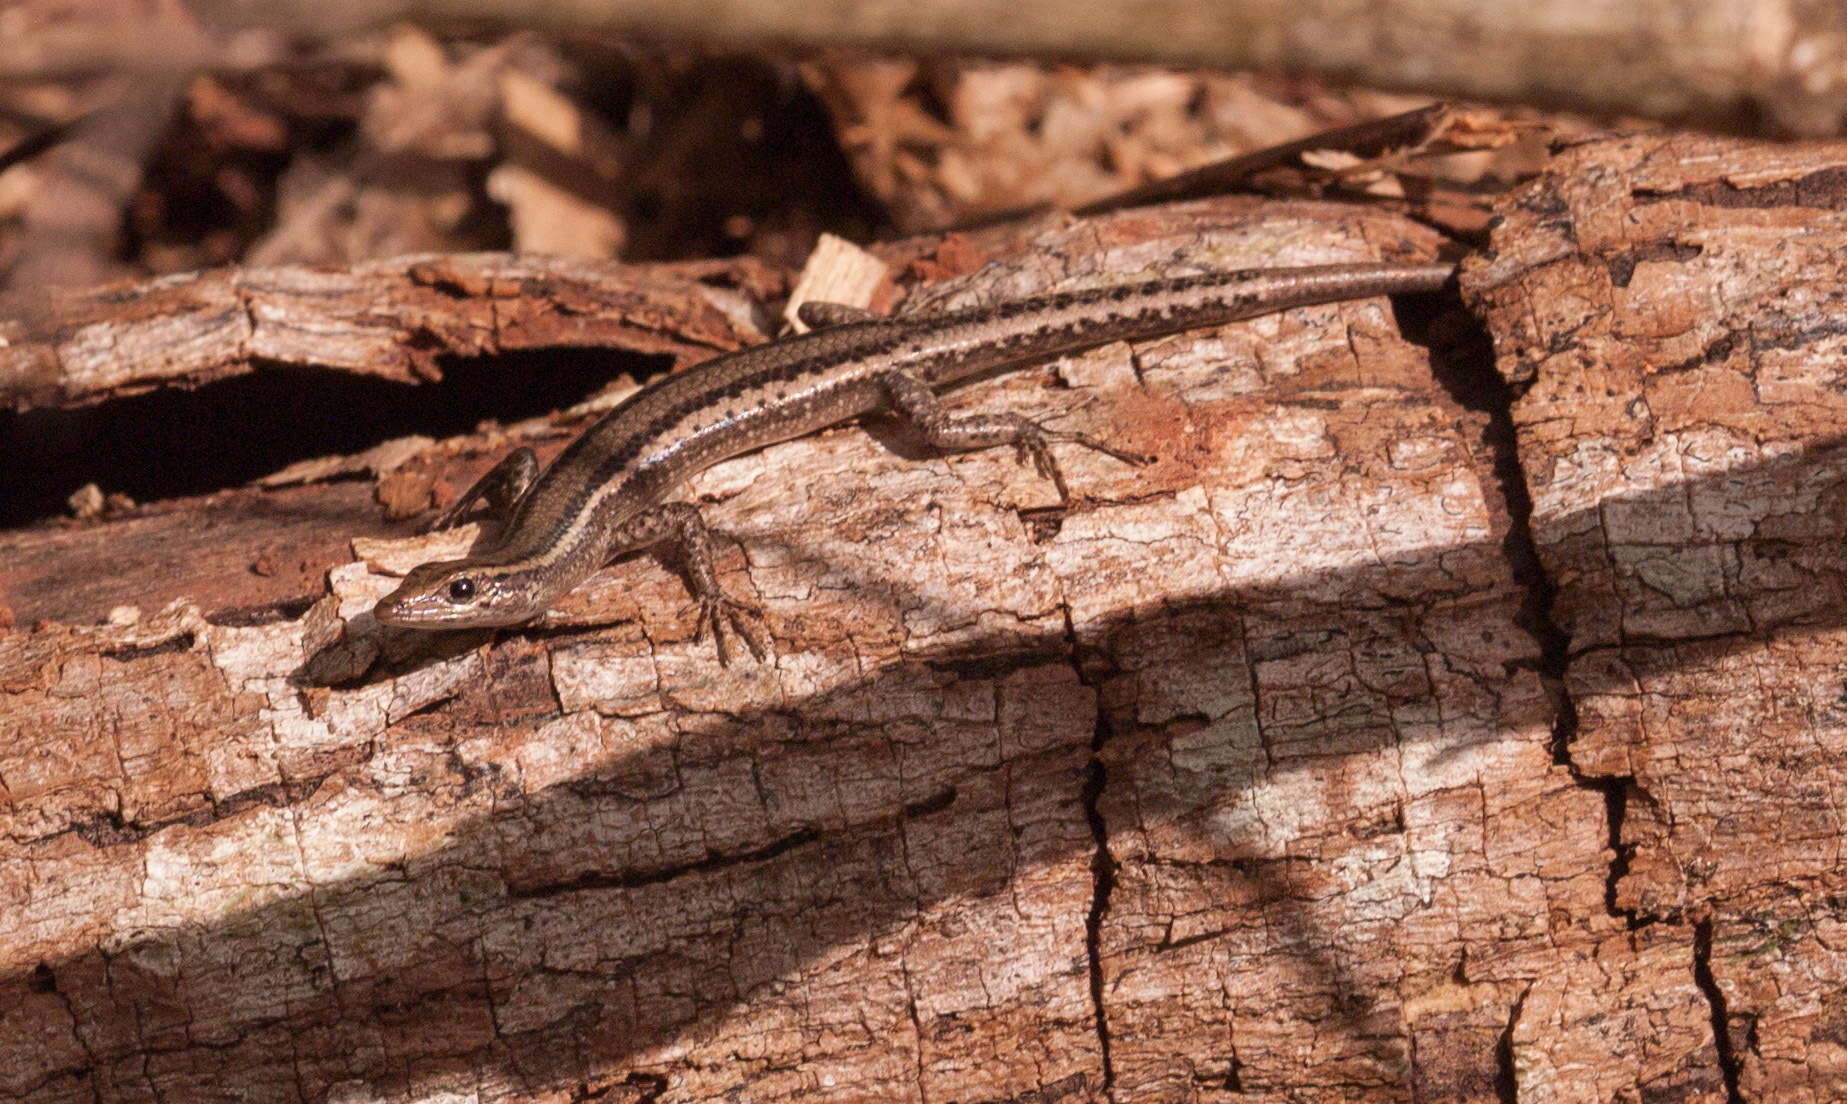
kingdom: Animalia
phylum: Chordata
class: Squamata
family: Scincidae
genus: Cryptoblepharus
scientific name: Cryptoblepharus virgatus
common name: Cream-striped shinning-skink
